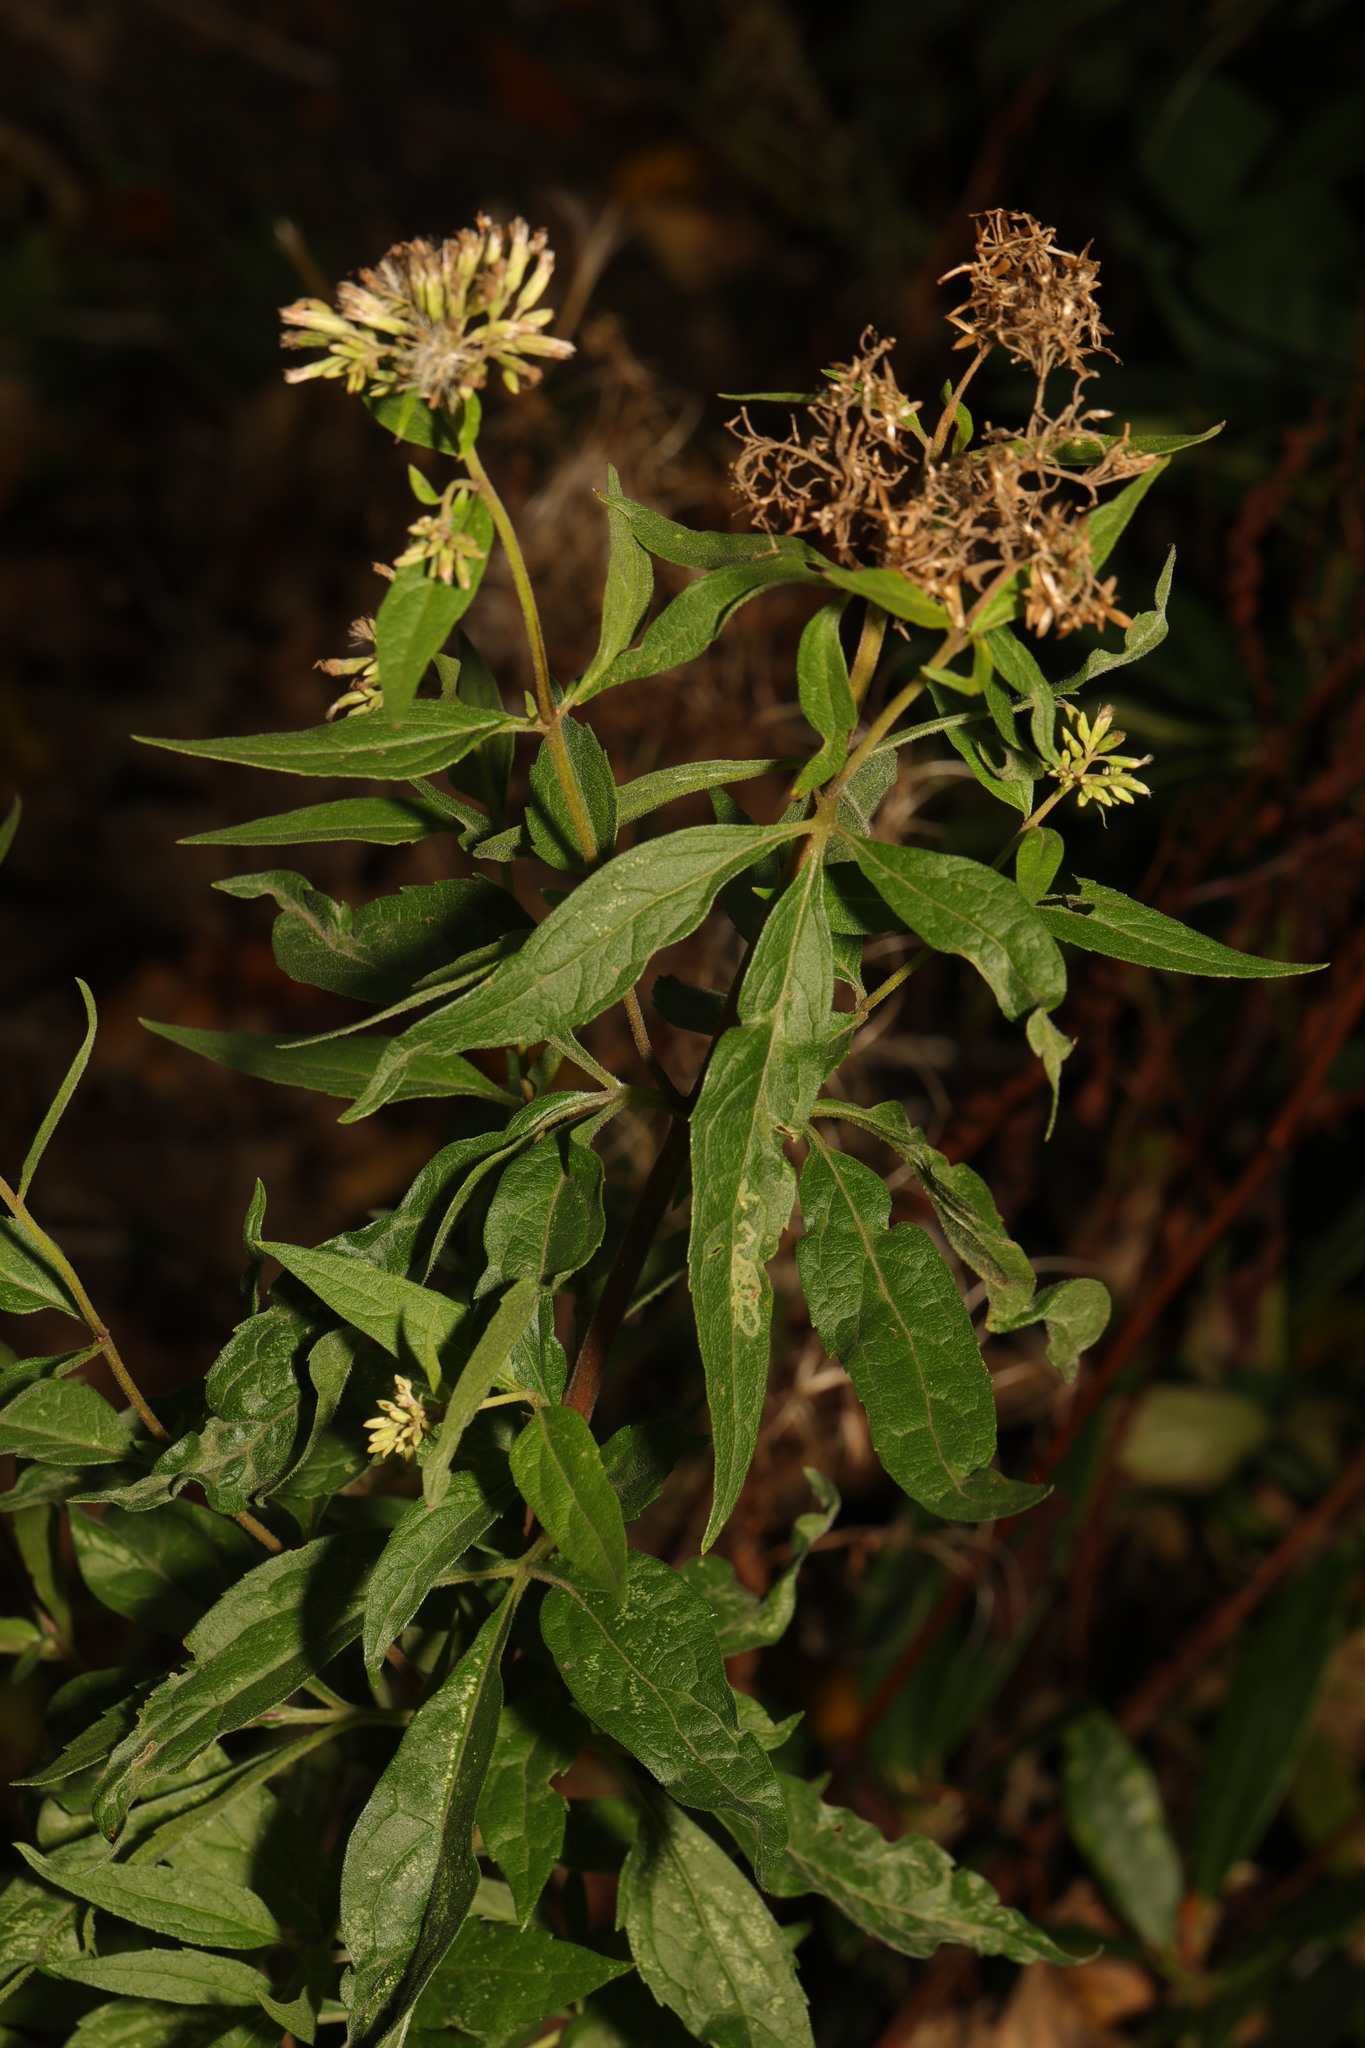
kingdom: Plantae
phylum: Tracheophyta
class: Magnoliopsida
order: Asterales
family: Asteraceae
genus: Eupatorium
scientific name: Eupatorium cannabinum
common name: Hemp-agrimony
